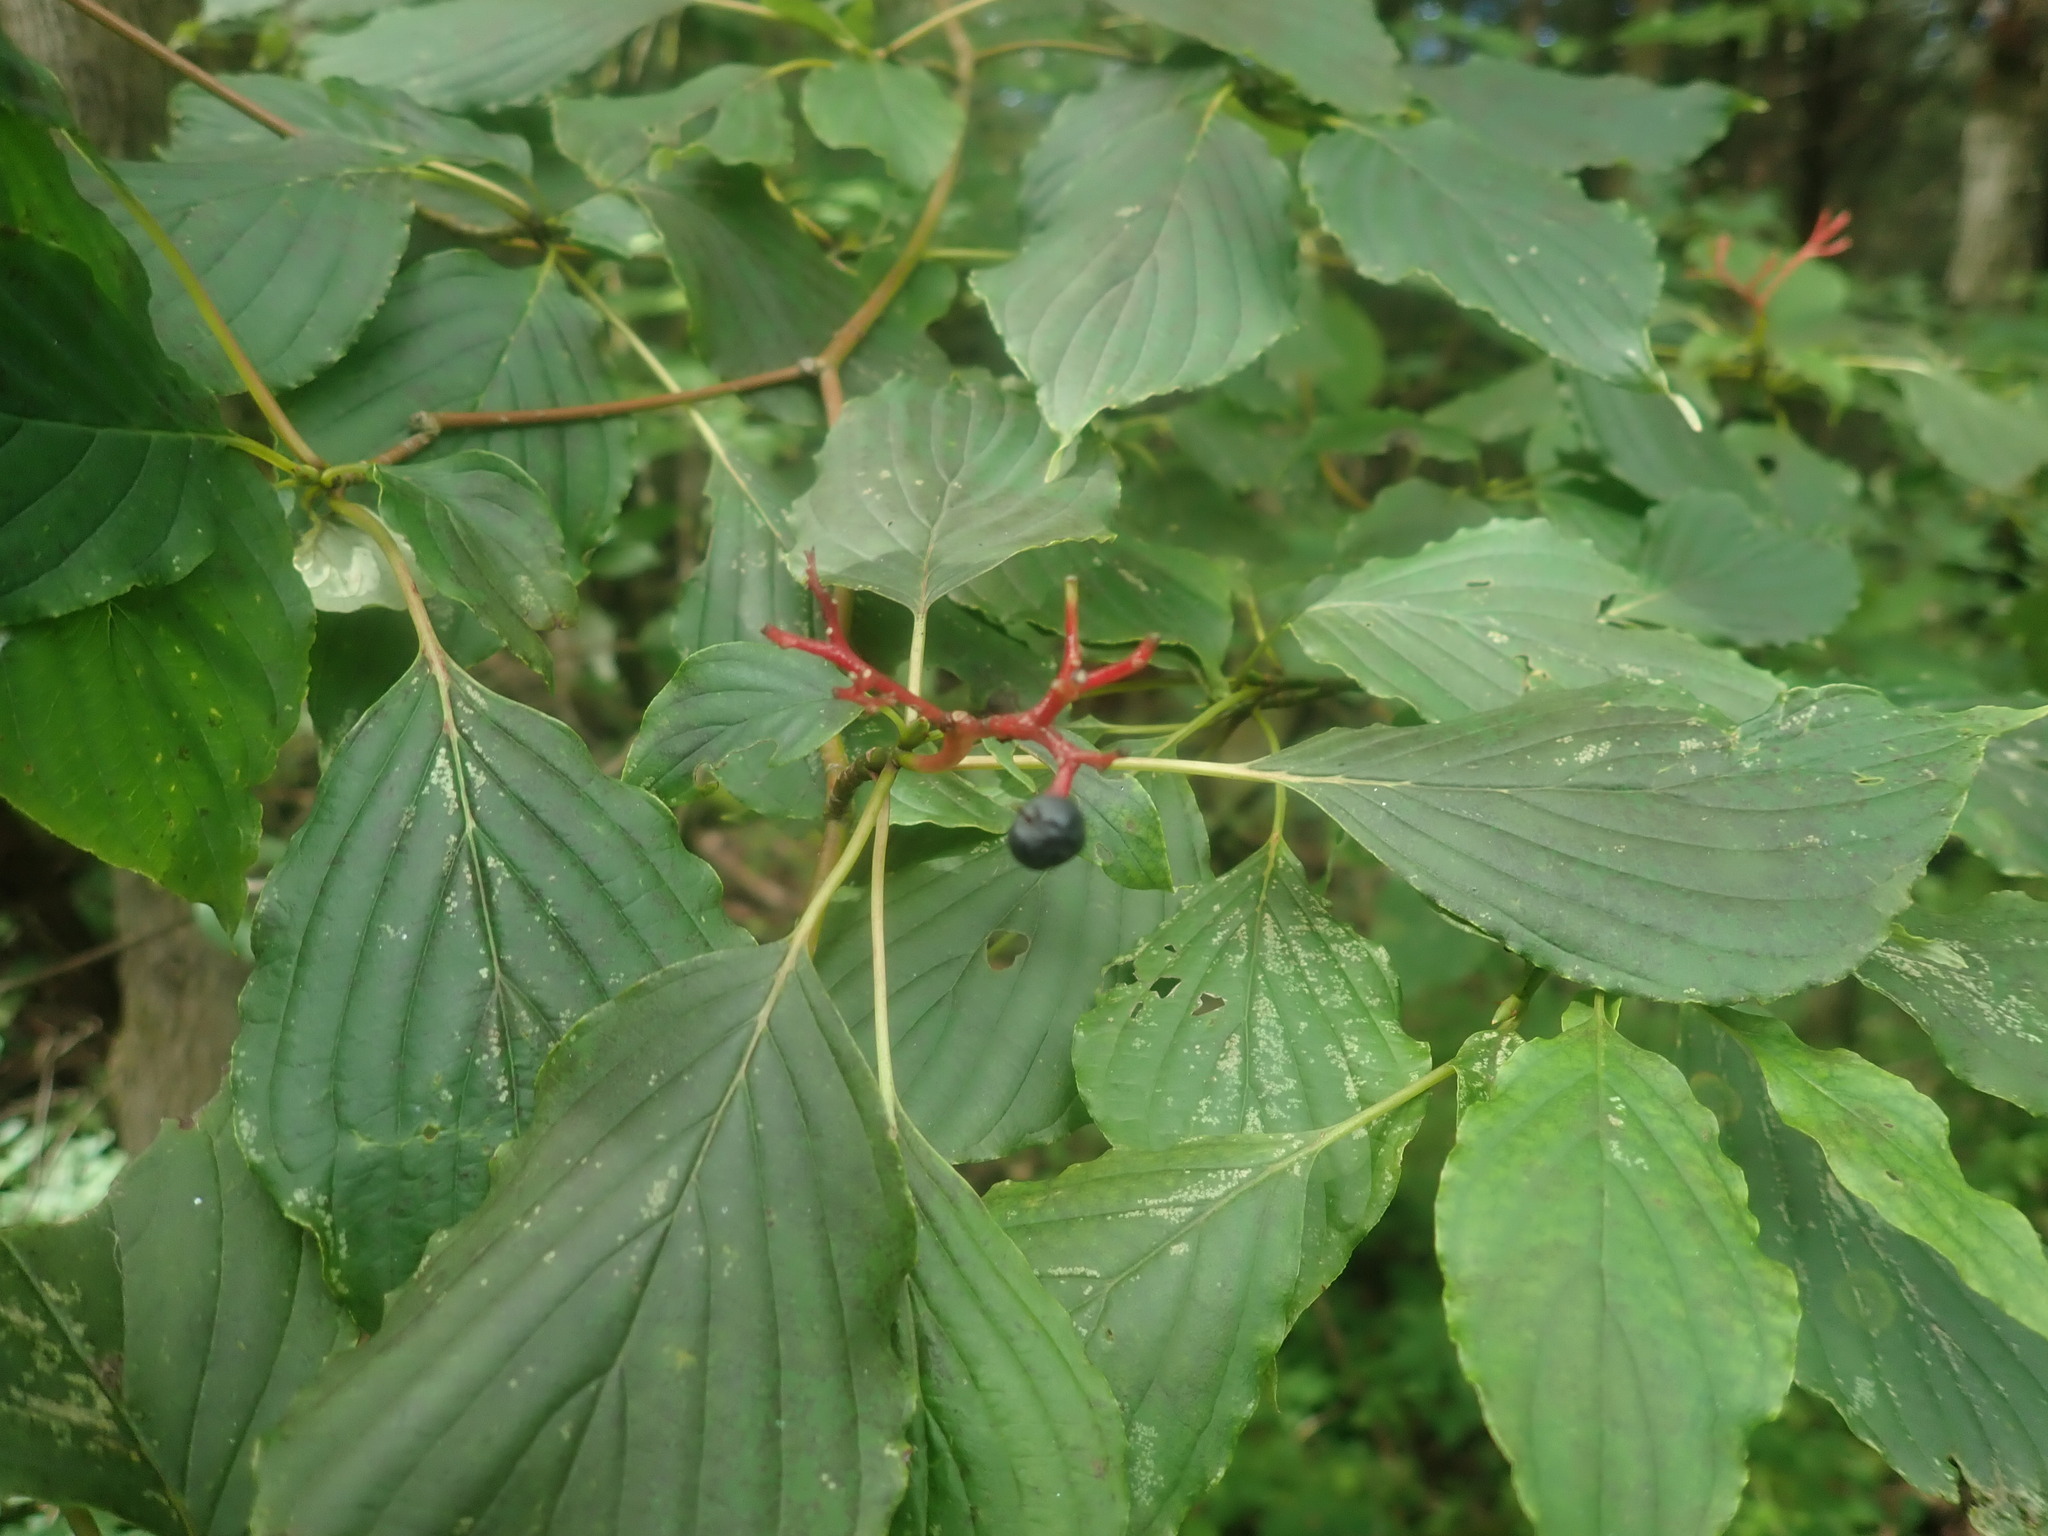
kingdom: Plantae
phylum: Tracheophyta
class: Magnoliopsida
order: Cornales
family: Cornaceae
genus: Cornus
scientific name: Cornus alternifolia
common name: Pagoda dogwood
